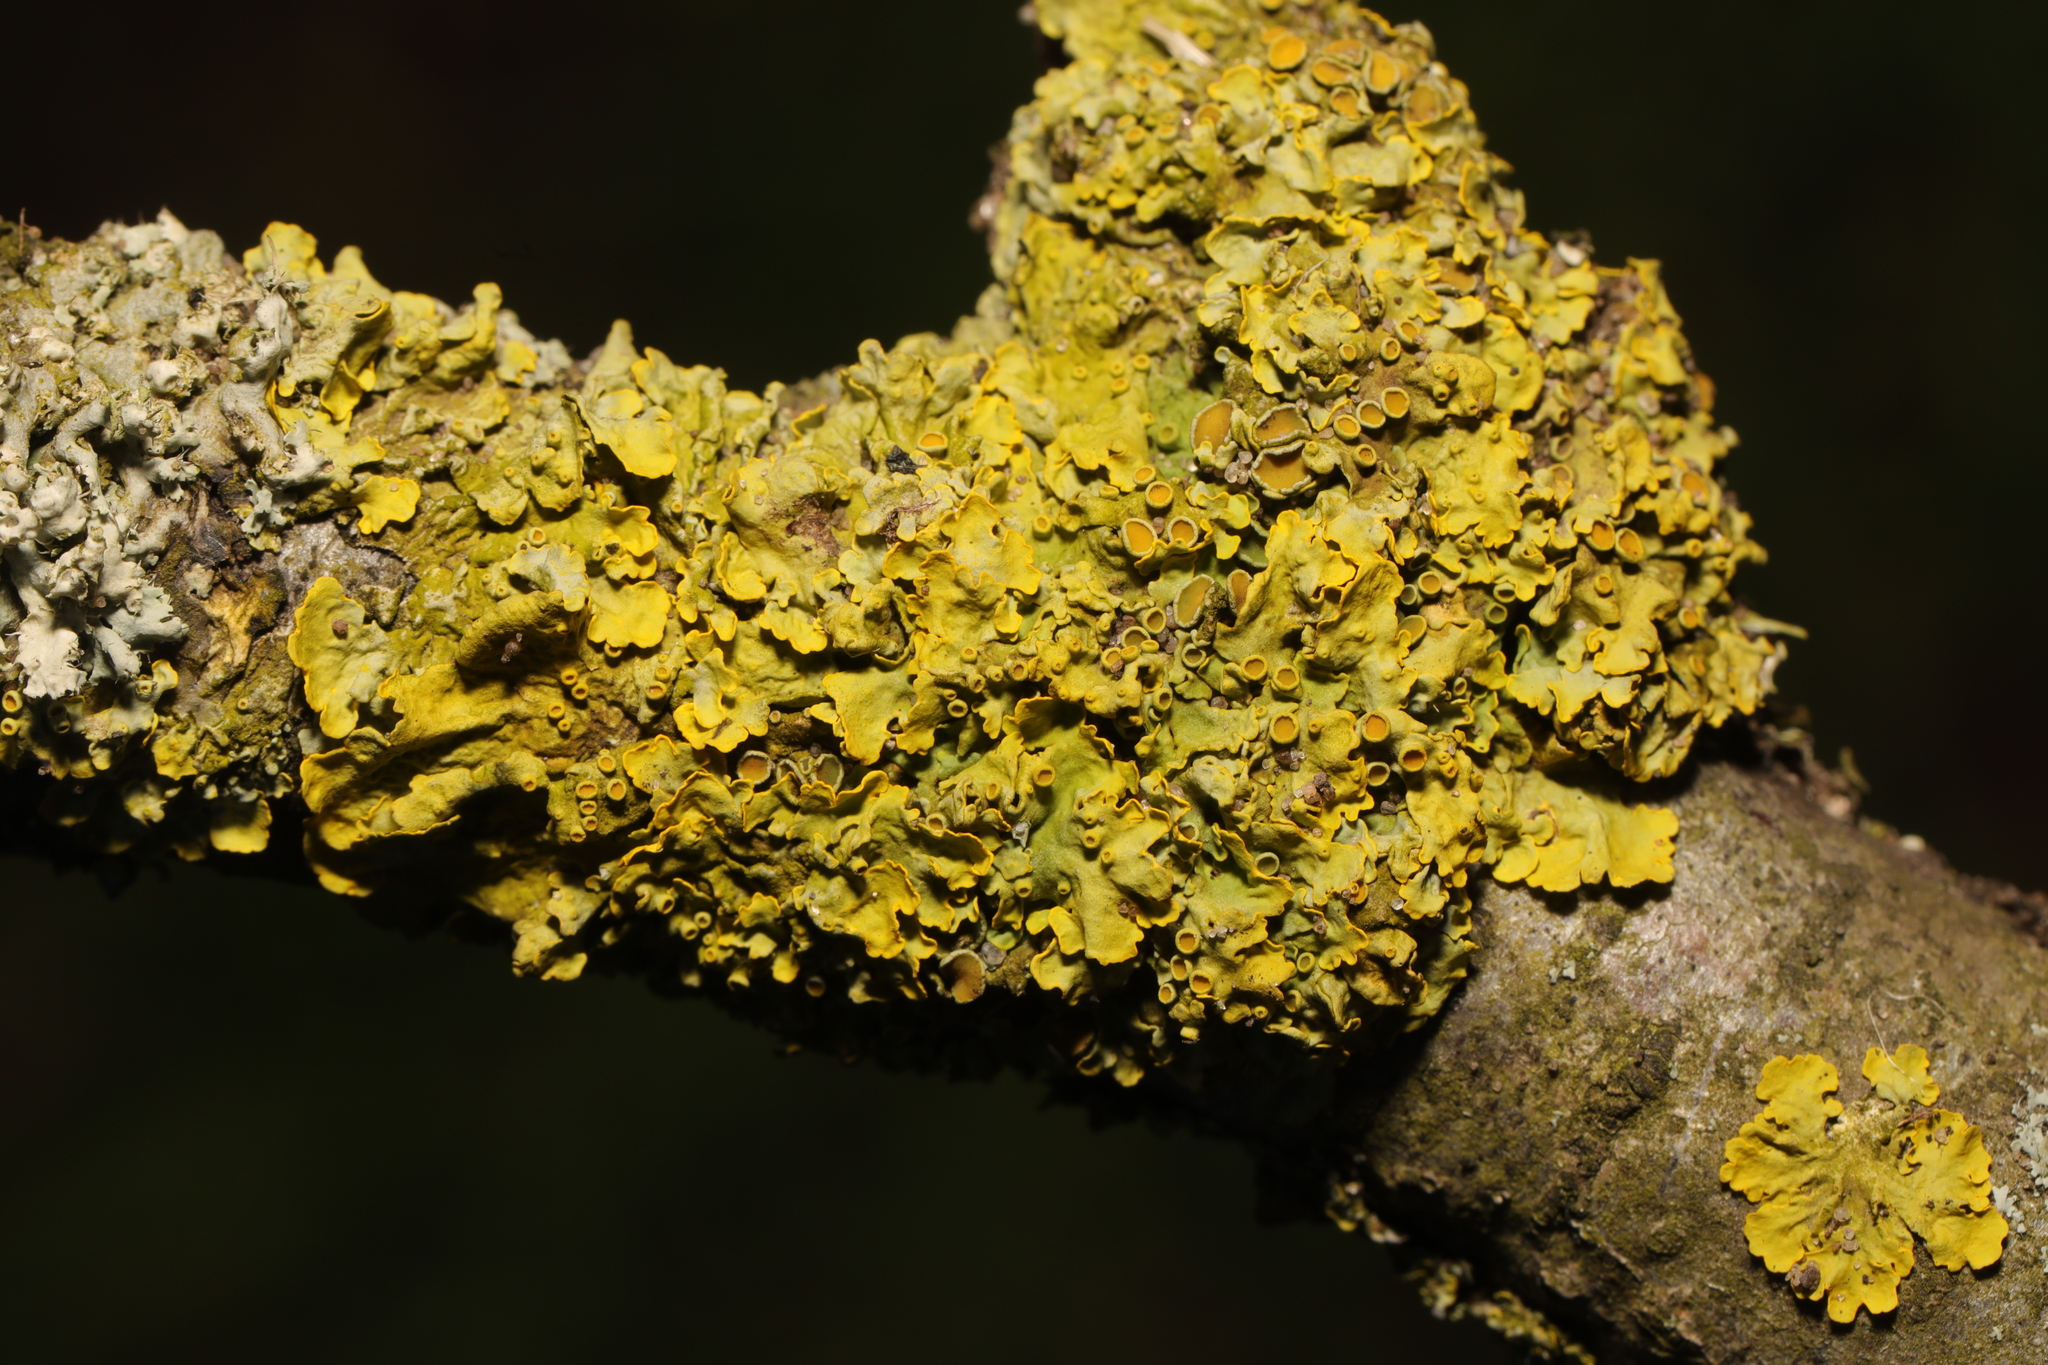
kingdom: Fungi
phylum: Ascomycota
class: Lecanoromycetes
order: Teloschistales
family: Teloschistaceae
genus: Xanthoria
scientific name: Xanthoria parietina
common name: Common orange lichen
